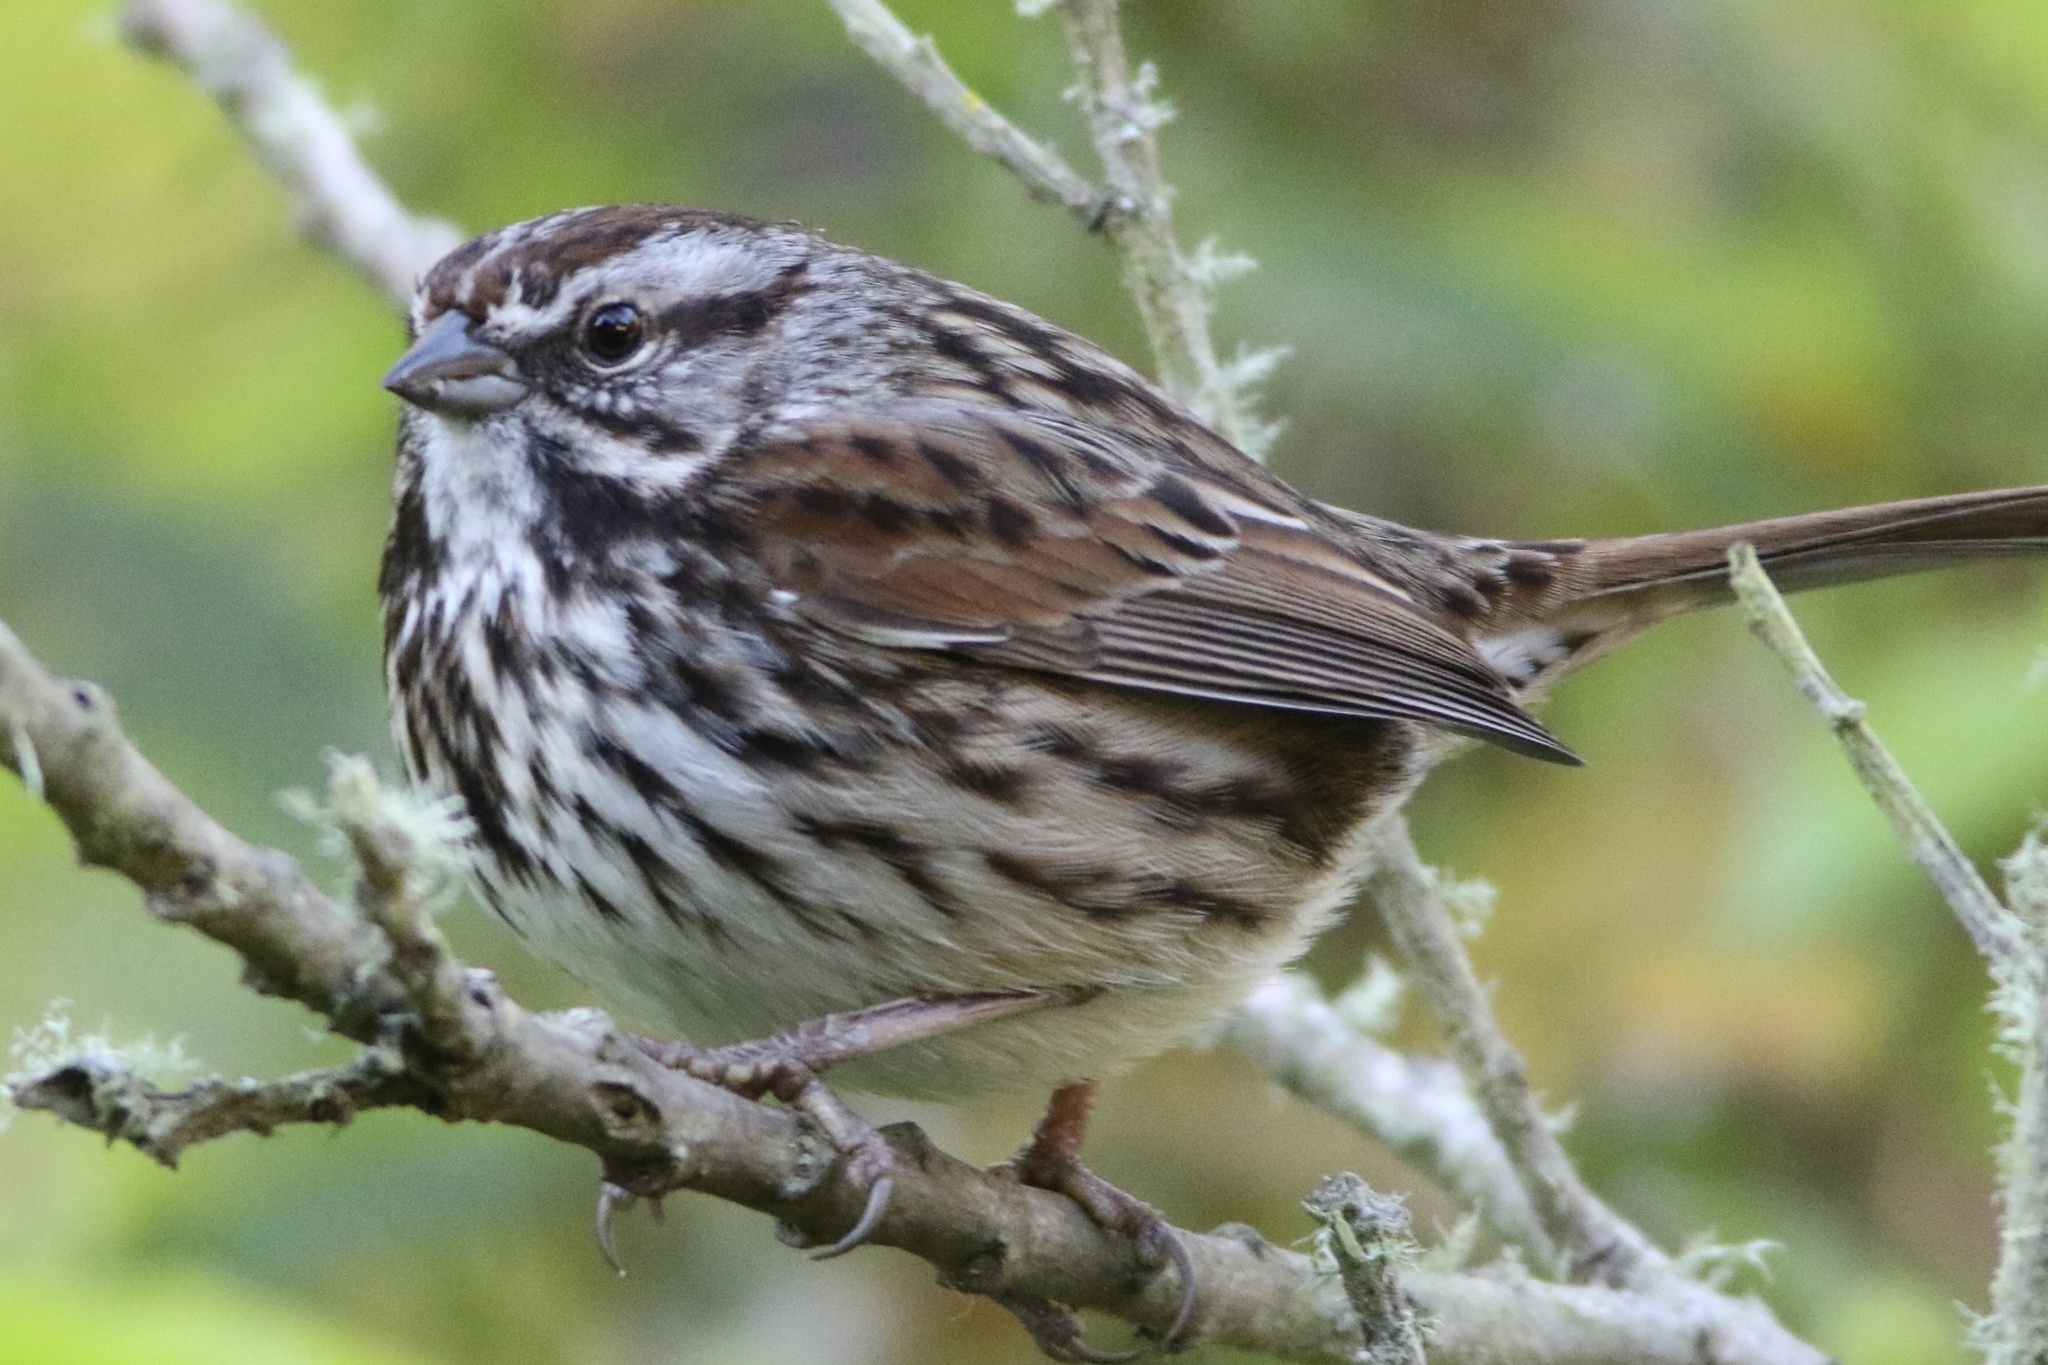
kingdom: Animalia
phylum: Chordata
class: Aves
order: Passeriformes
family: Passerellidae
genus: Melospiza
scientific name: Melospiza melodia
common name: Song sparrow
